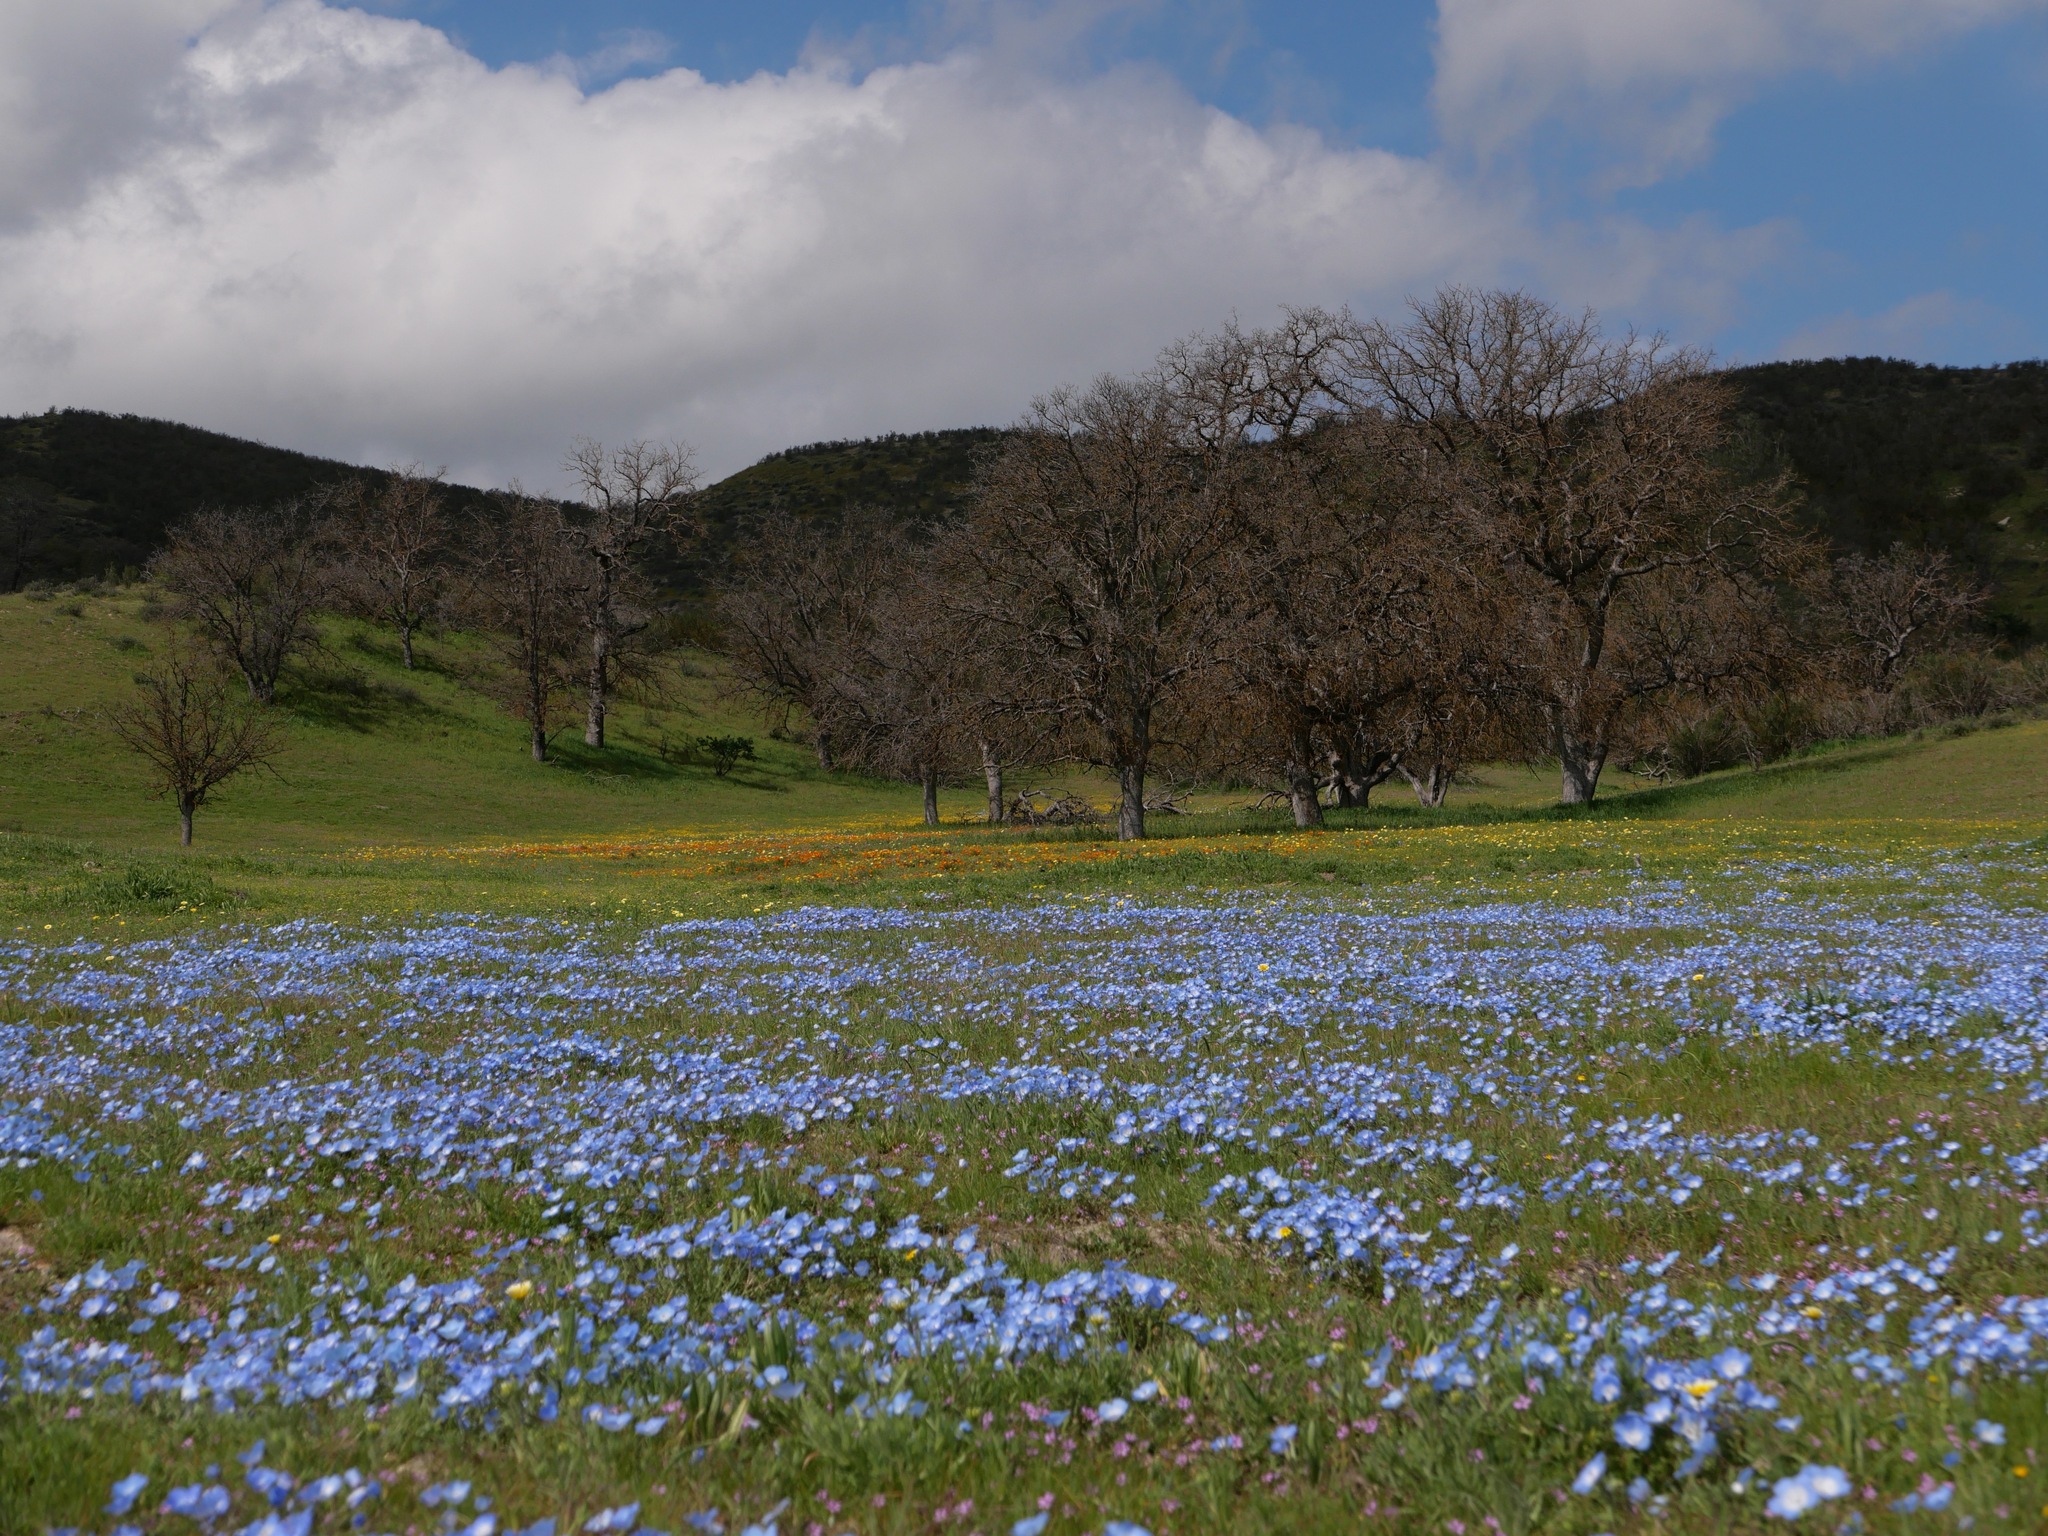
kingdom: Plantae
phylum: Tracheophyta
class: Magnoliopsida
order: Boraginales
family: Hydrophyllaceae
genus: Nemophila
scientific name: Nemophila menziesii
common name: Baby's-blue-eyes
